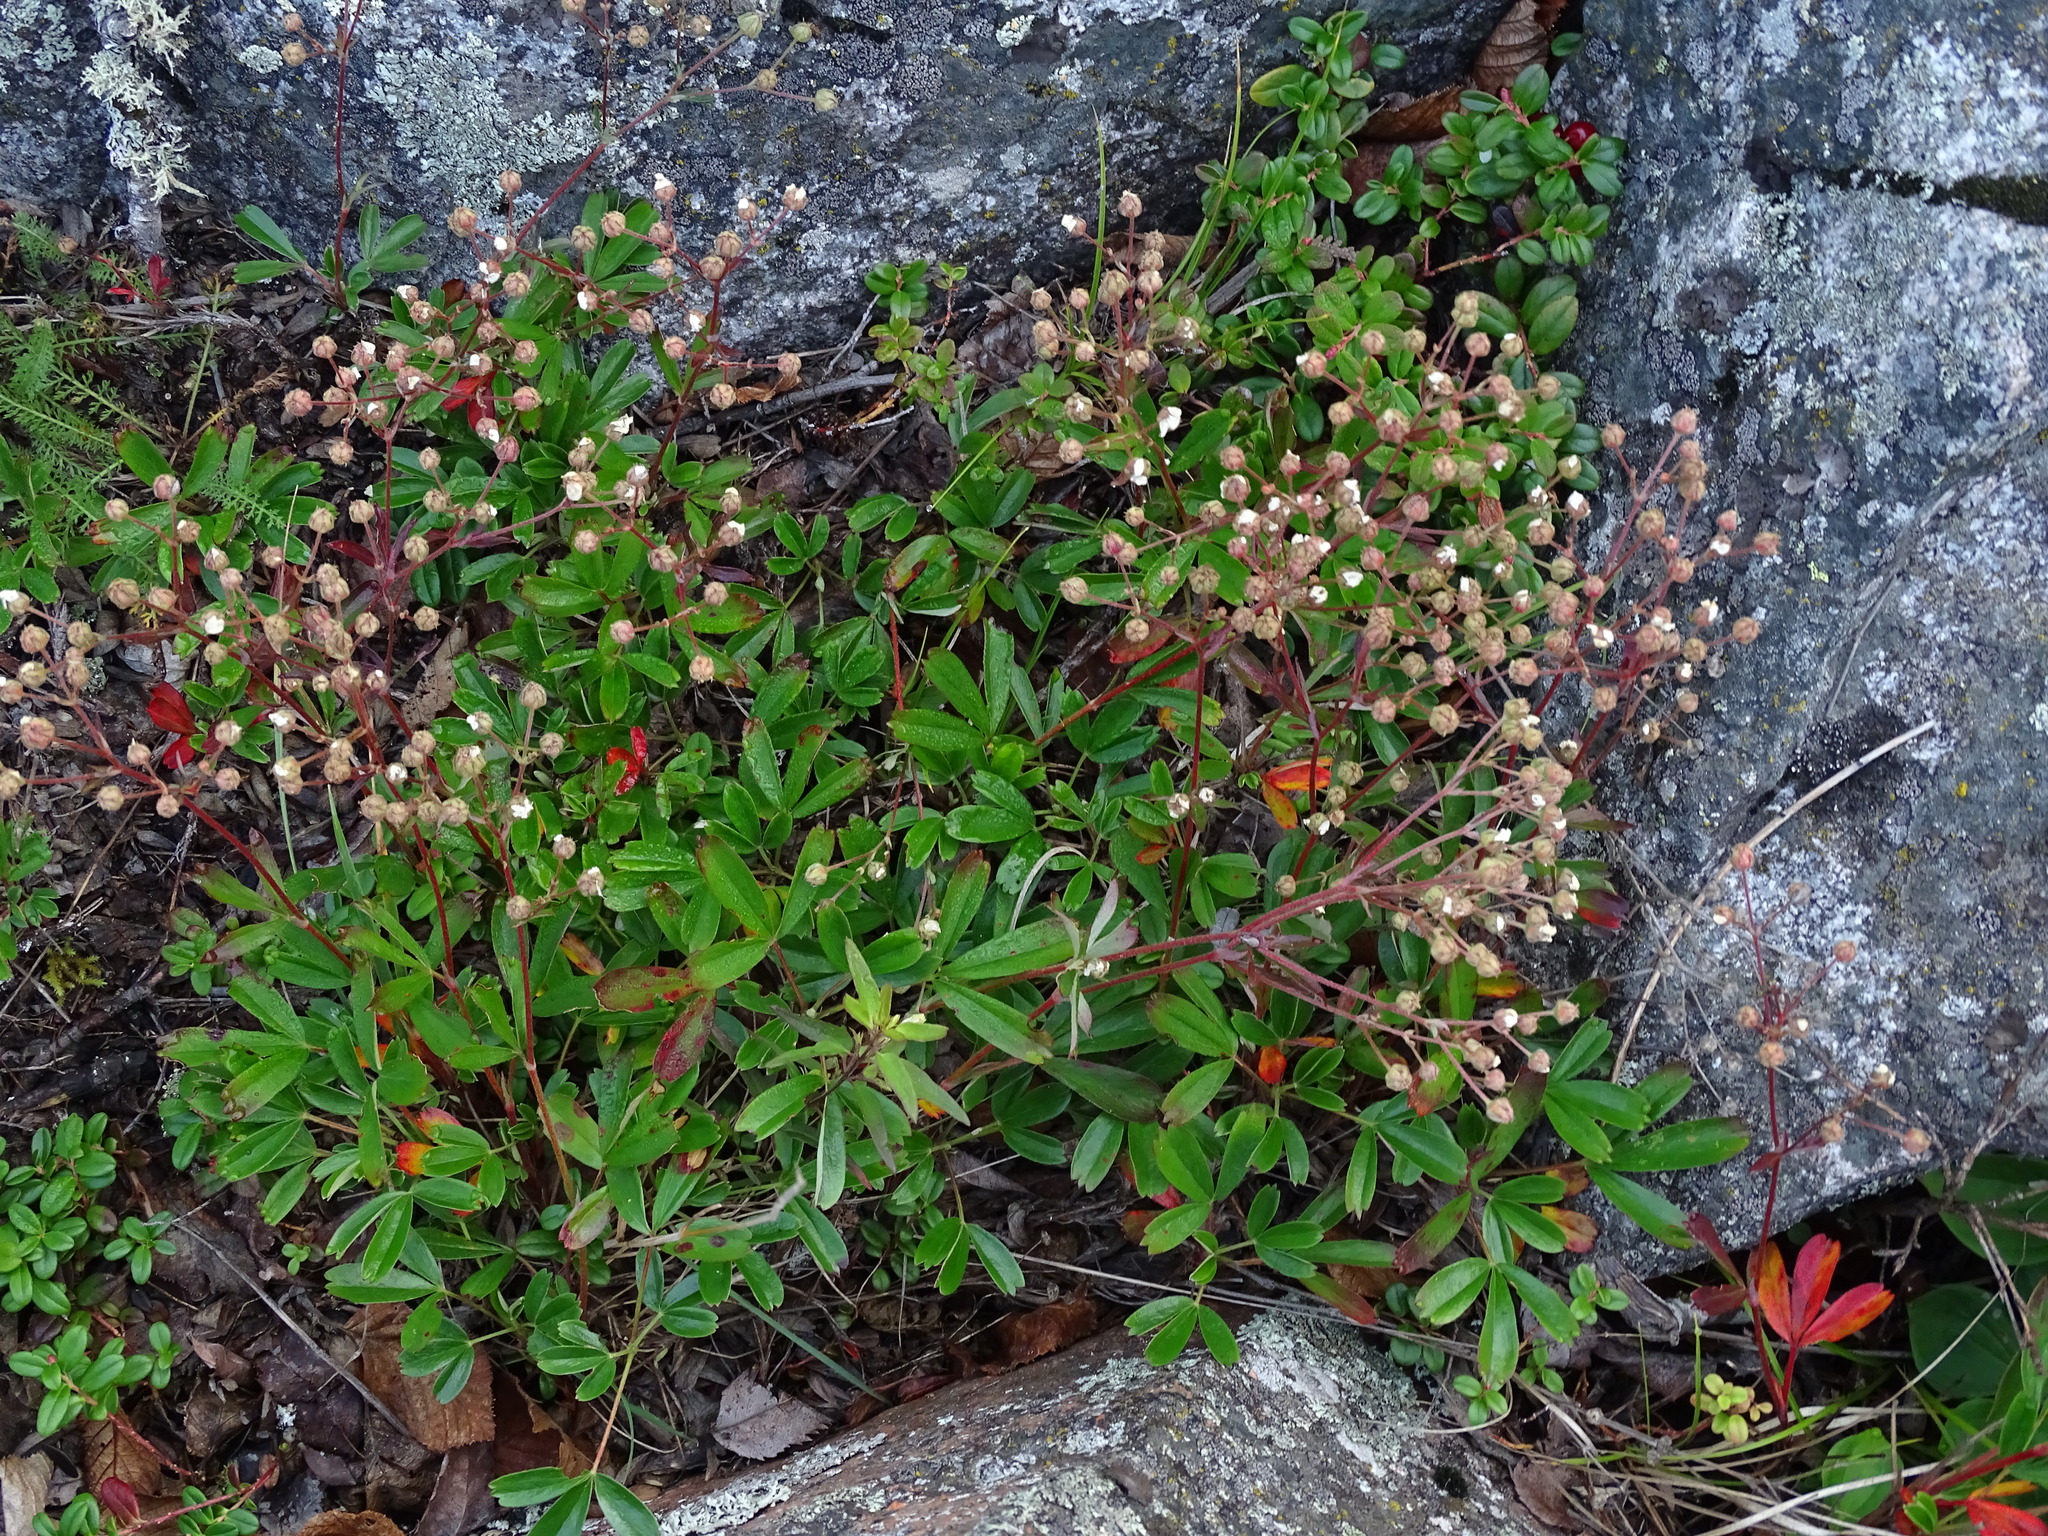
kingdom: Plantae
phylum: Tracheophyta
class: Magnoliopsida
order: Rosales
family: Rosaceae
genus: Sibbaldia
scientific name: Sibbaldia tridentata
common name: Three-toothed cinquefoil
